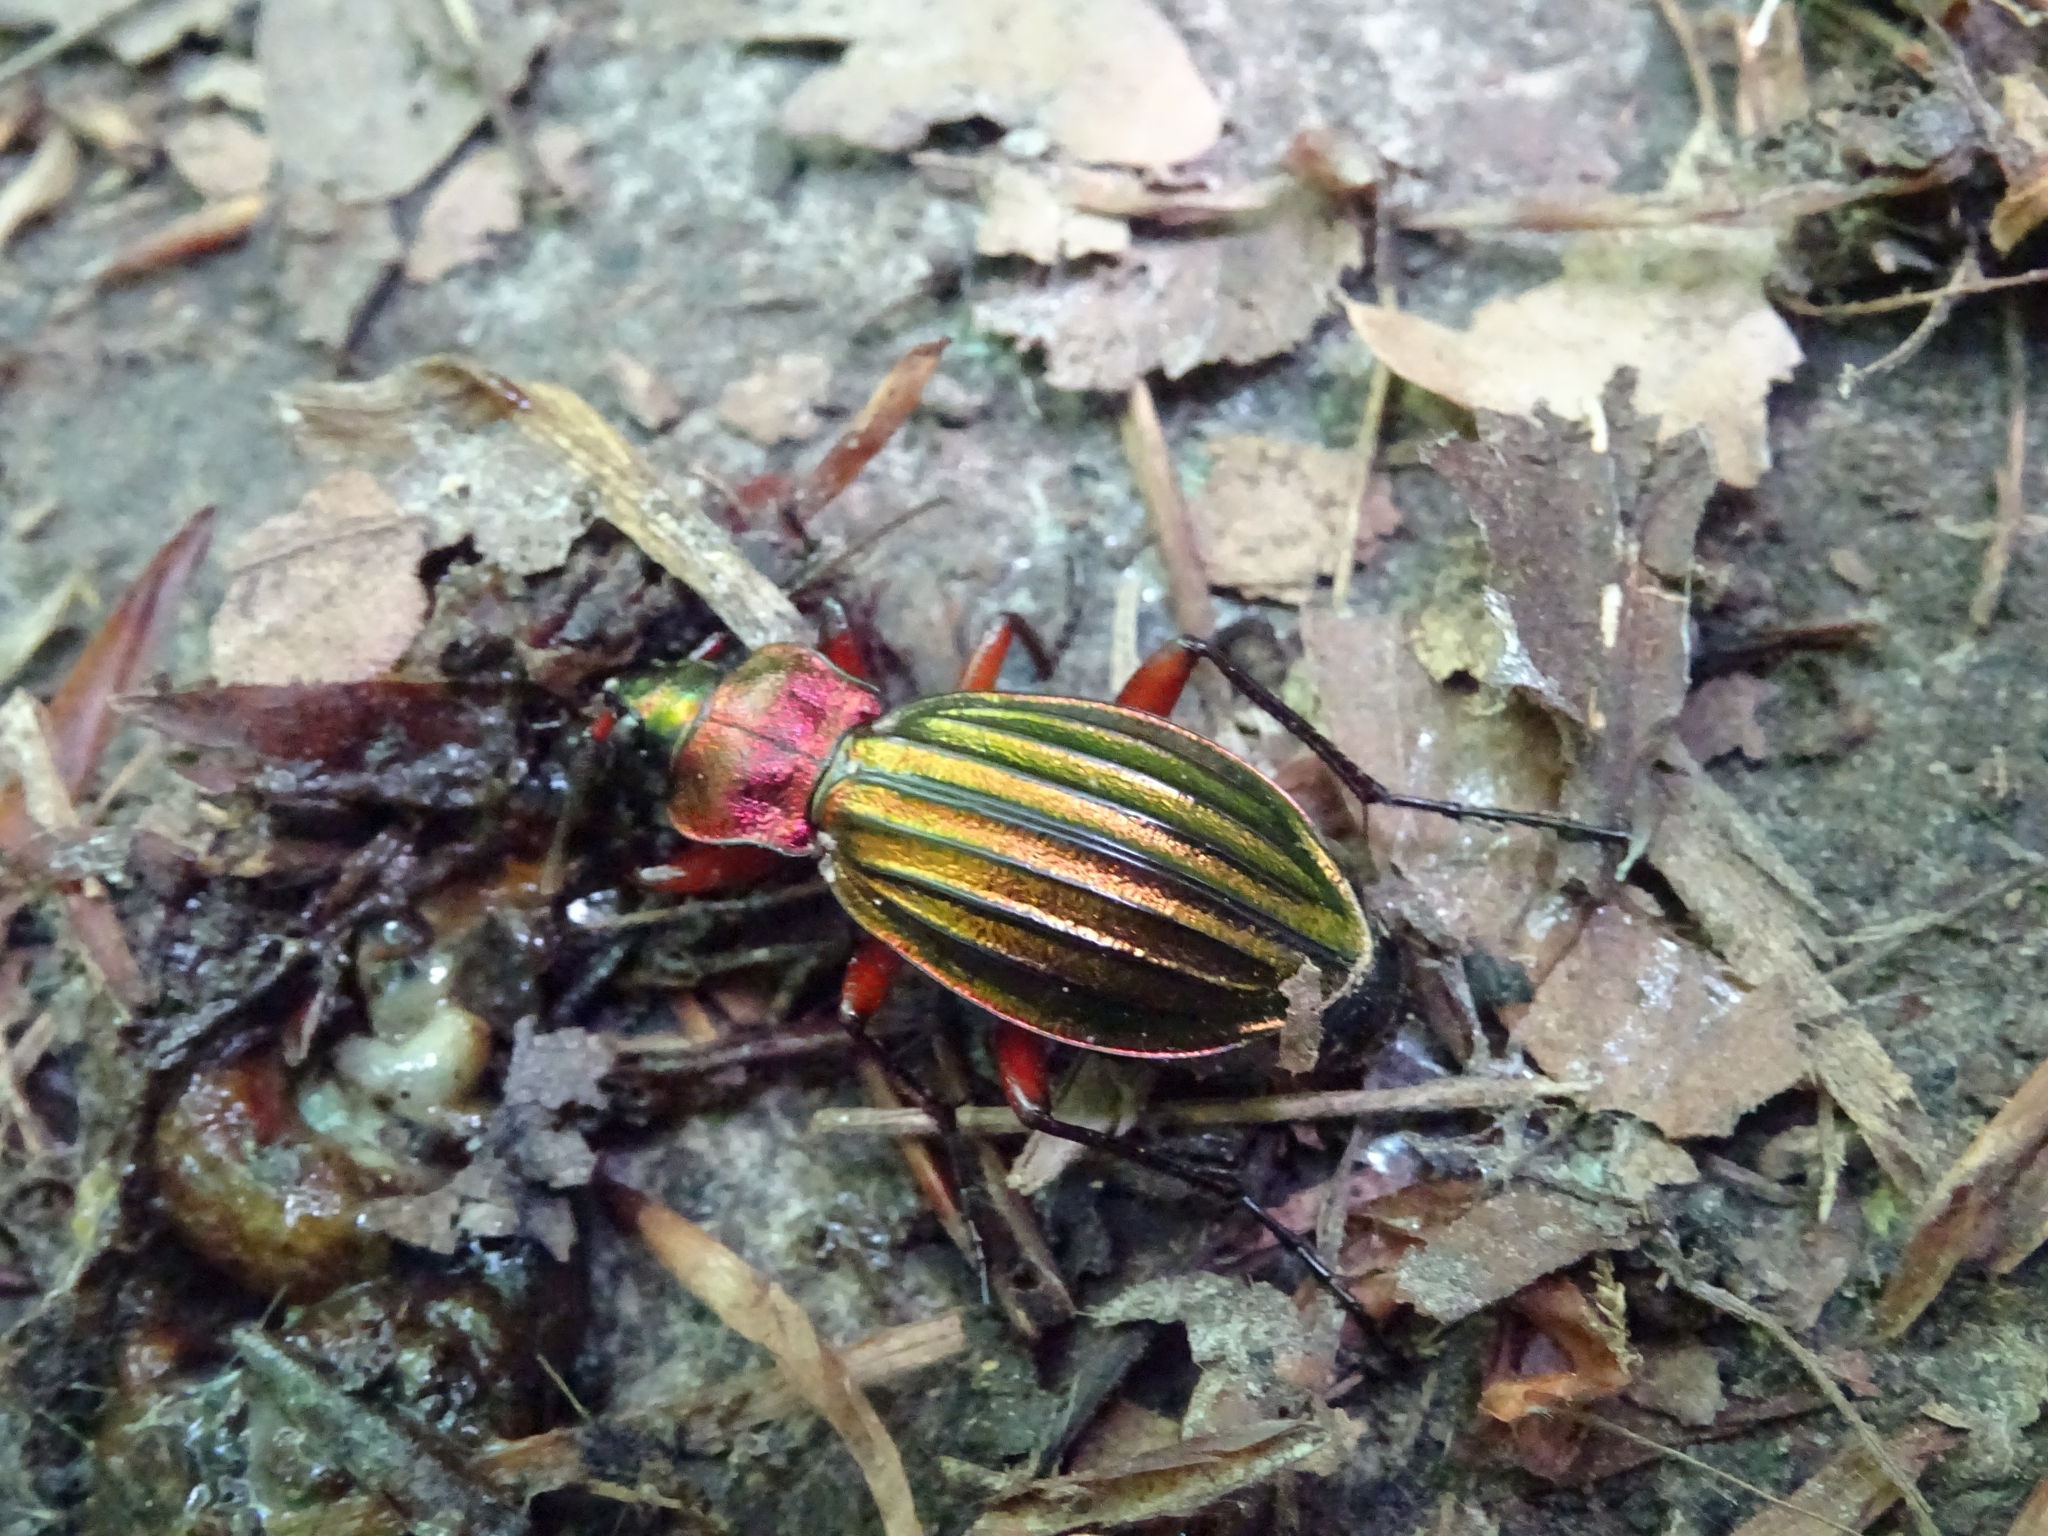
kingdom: Animalia
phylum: Arthropoda
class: Insecta
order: Coleoptera
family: Carabidae
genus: Carabus
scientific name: Carabus auronitens
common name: Carabus auronitens
